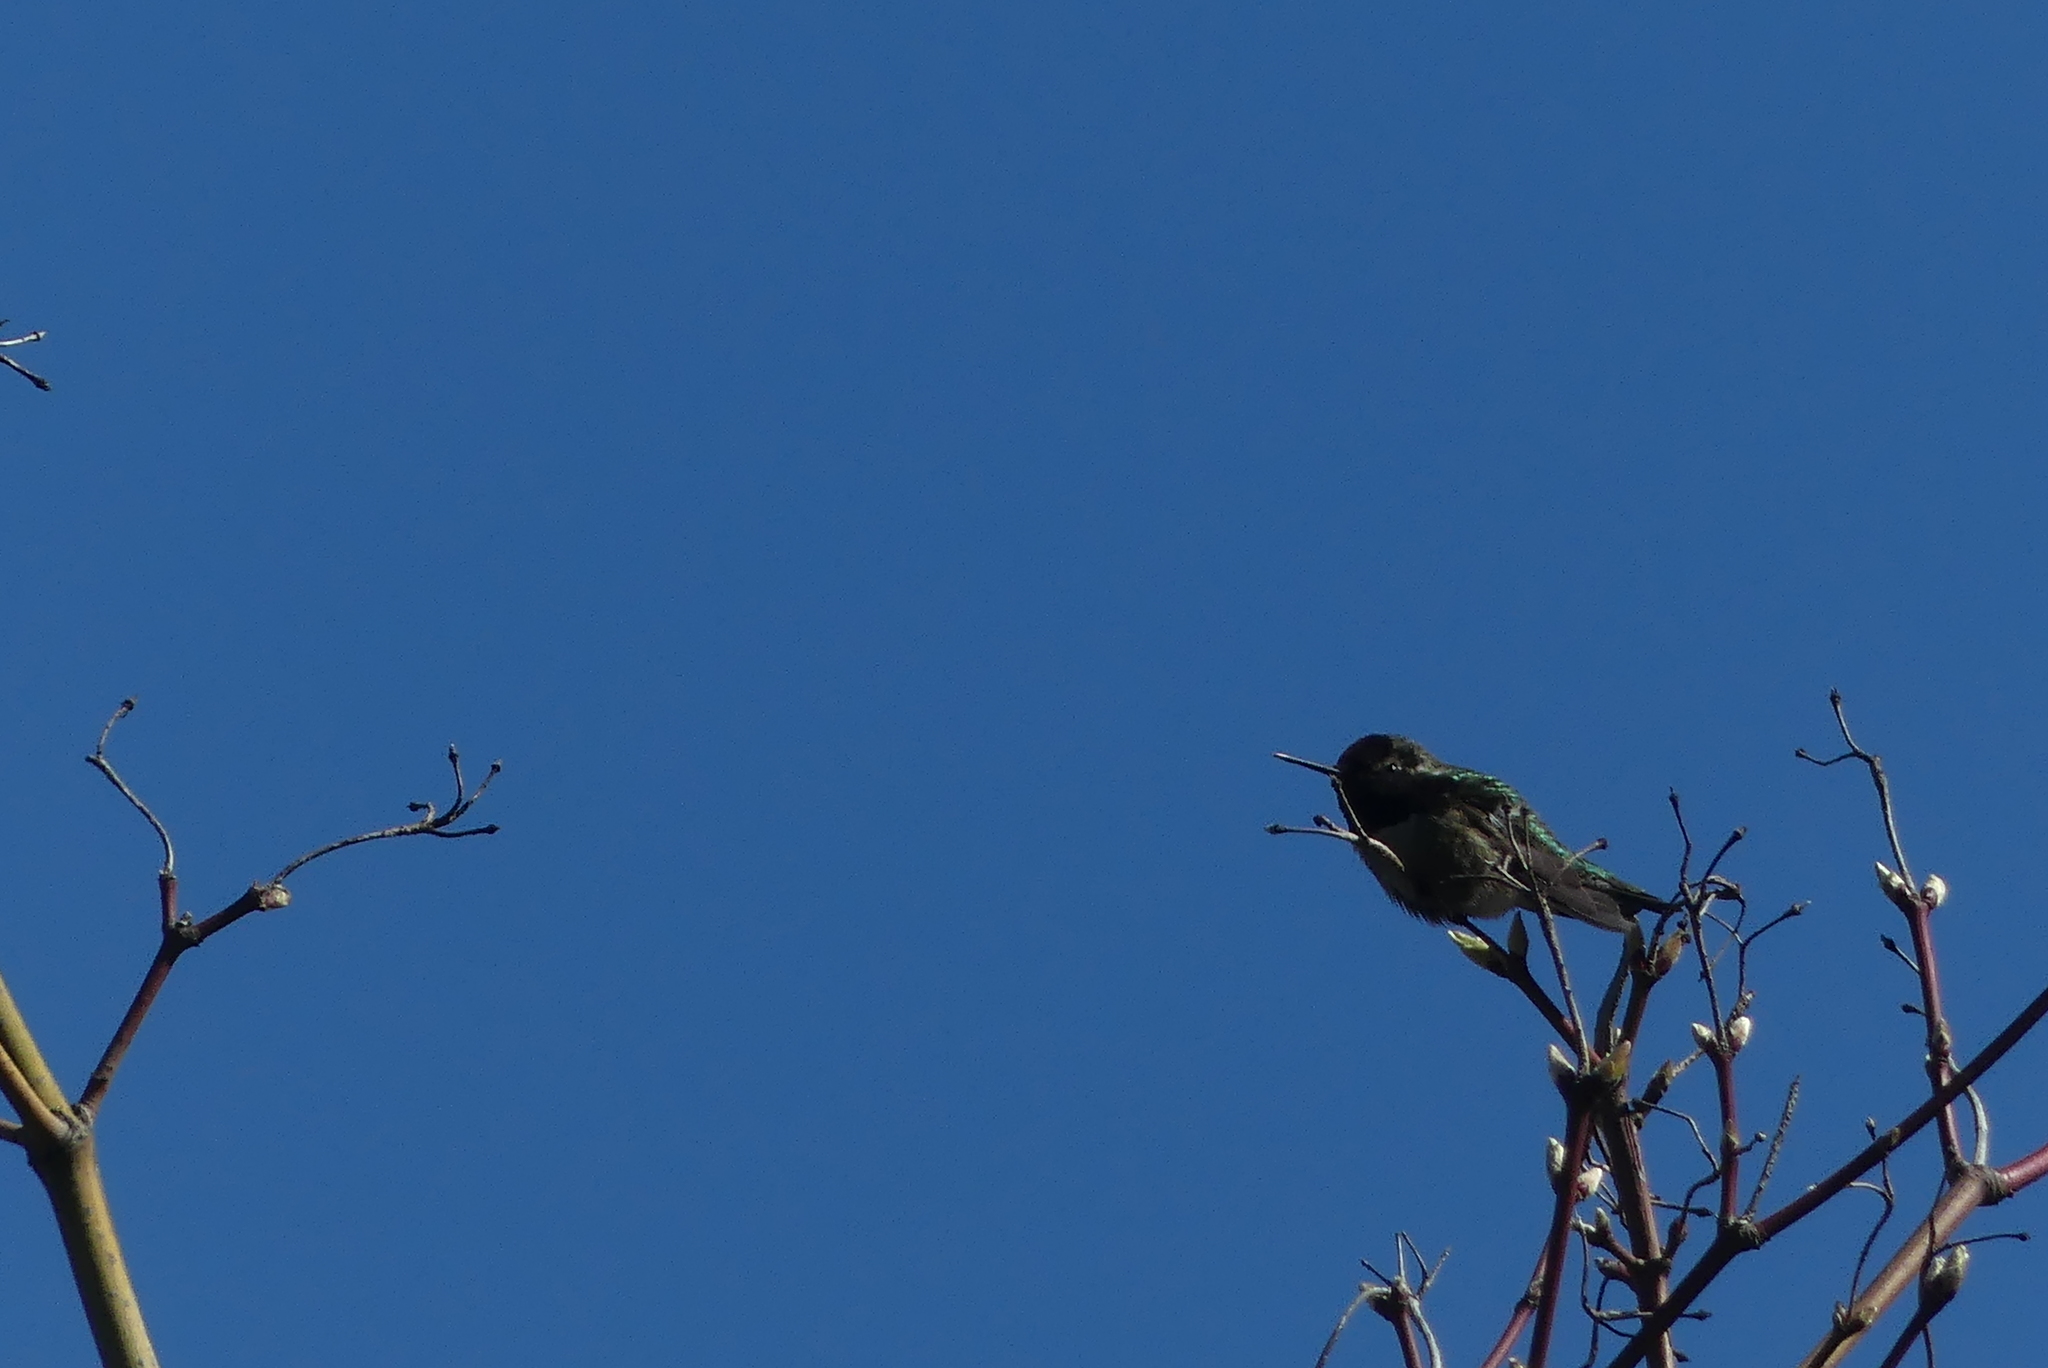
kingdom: Animalia
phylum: Chordata
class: Aves
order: Apodiformes
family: Trochilidae
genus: Calypte
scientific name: Calypte anna
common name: Anna's hummingbird
